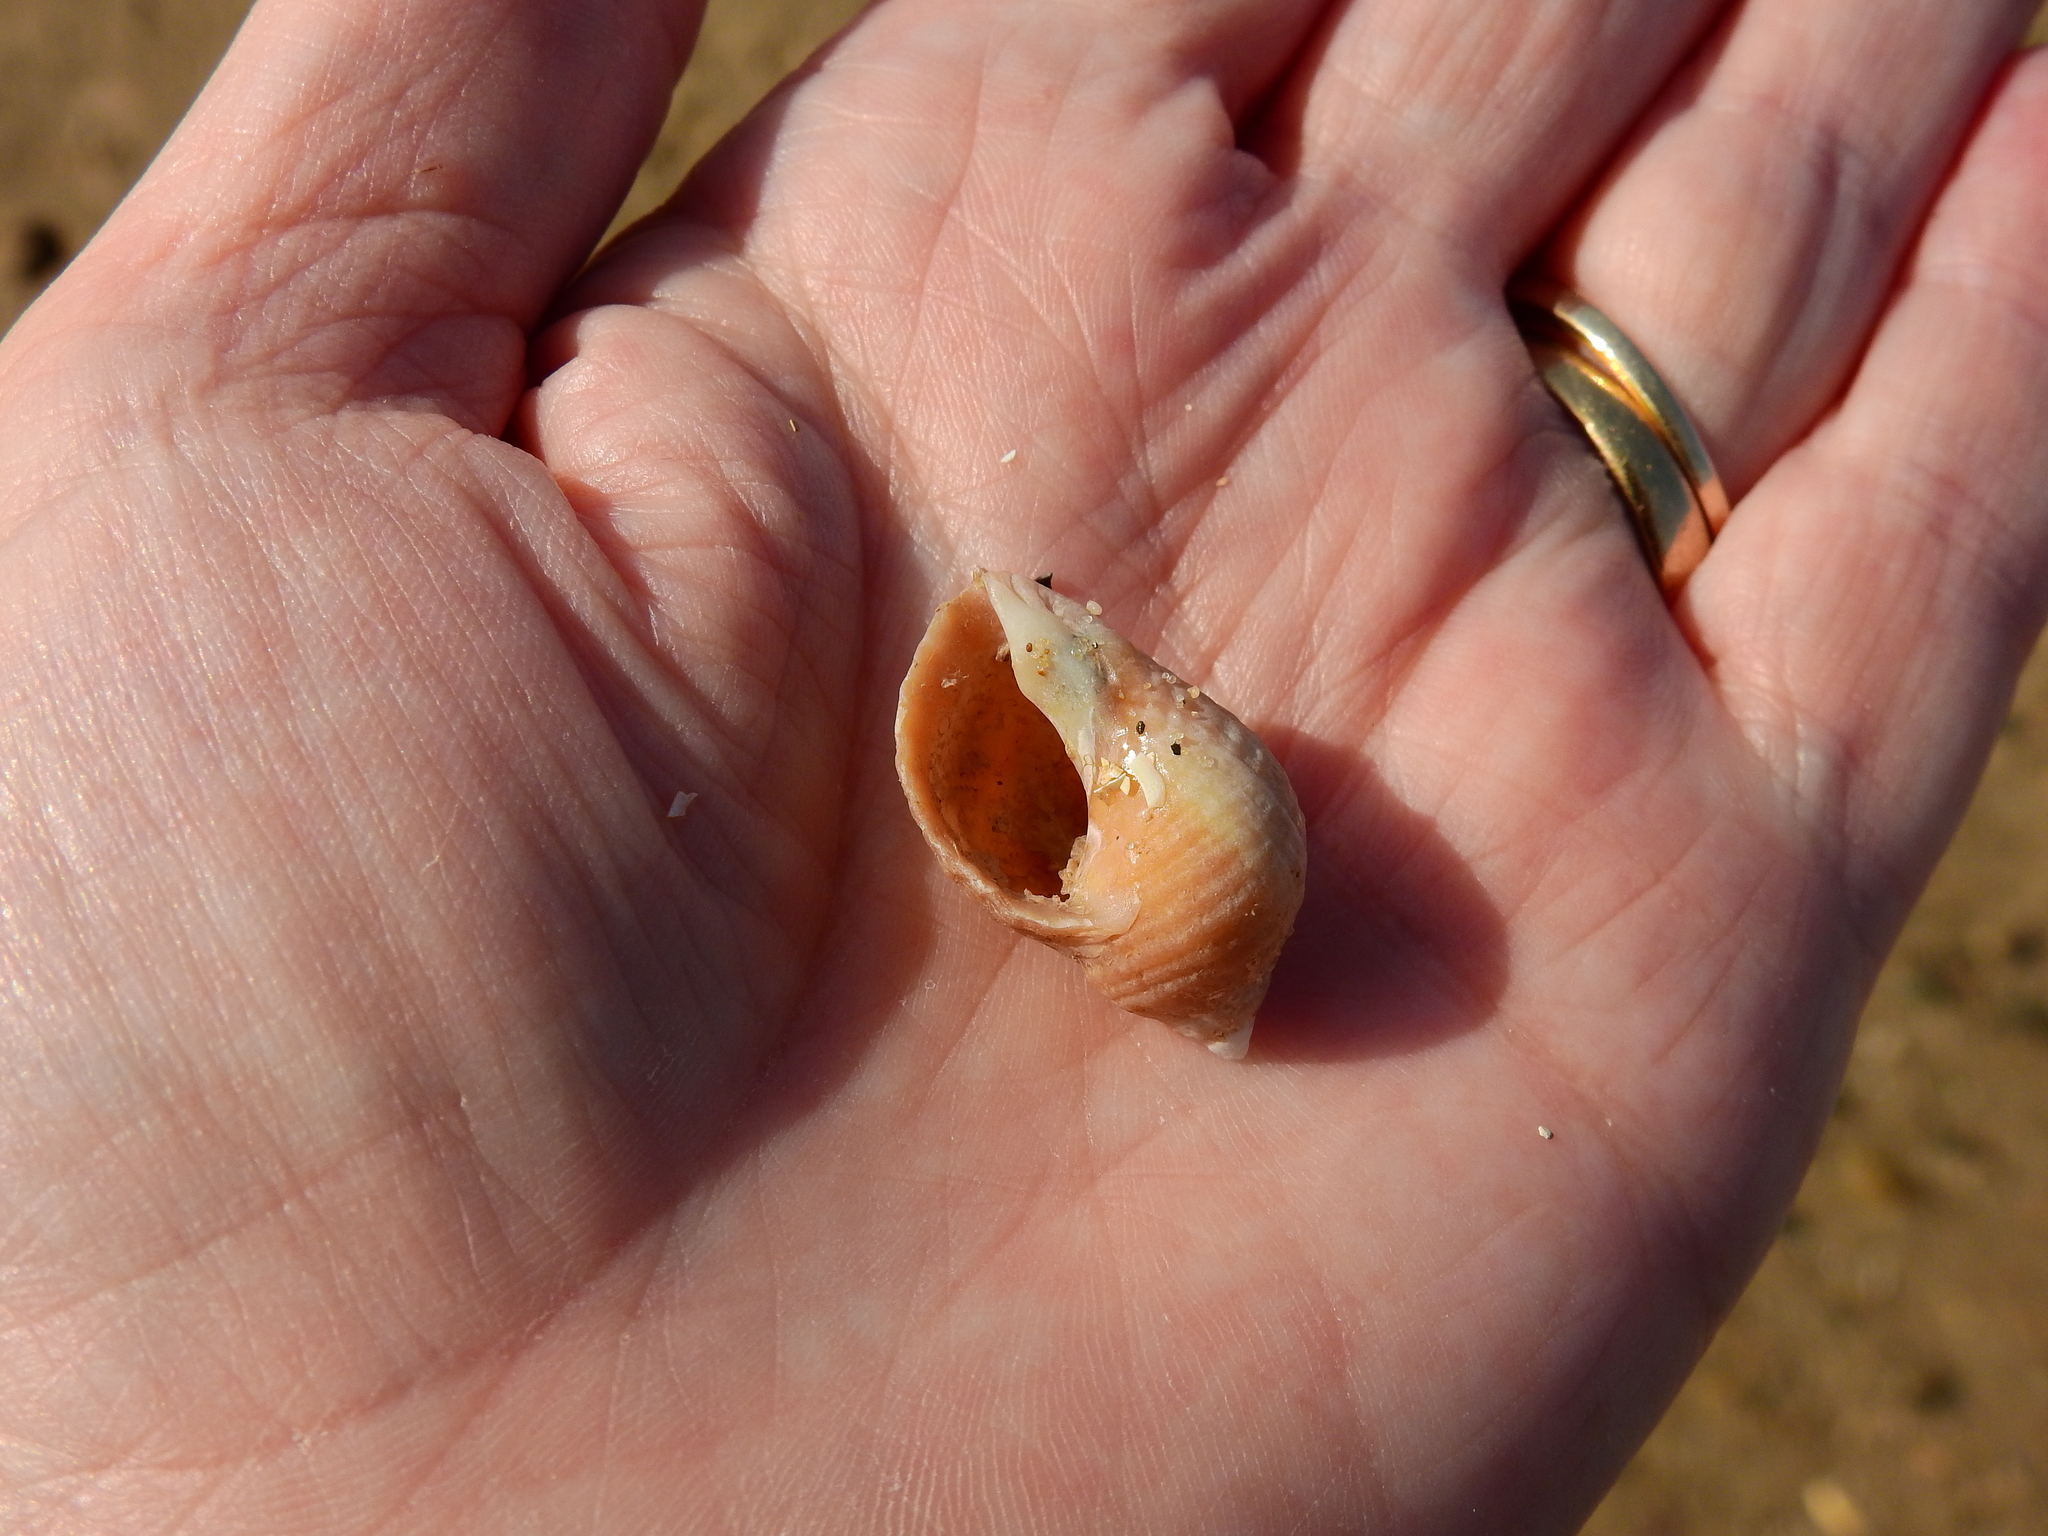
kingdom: Animalia
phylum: Mollusca
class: Gastropoda
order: Neogastropoda
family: Muricidae
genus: Nucella
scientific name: Nucella lapillus
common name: Dog whelk
